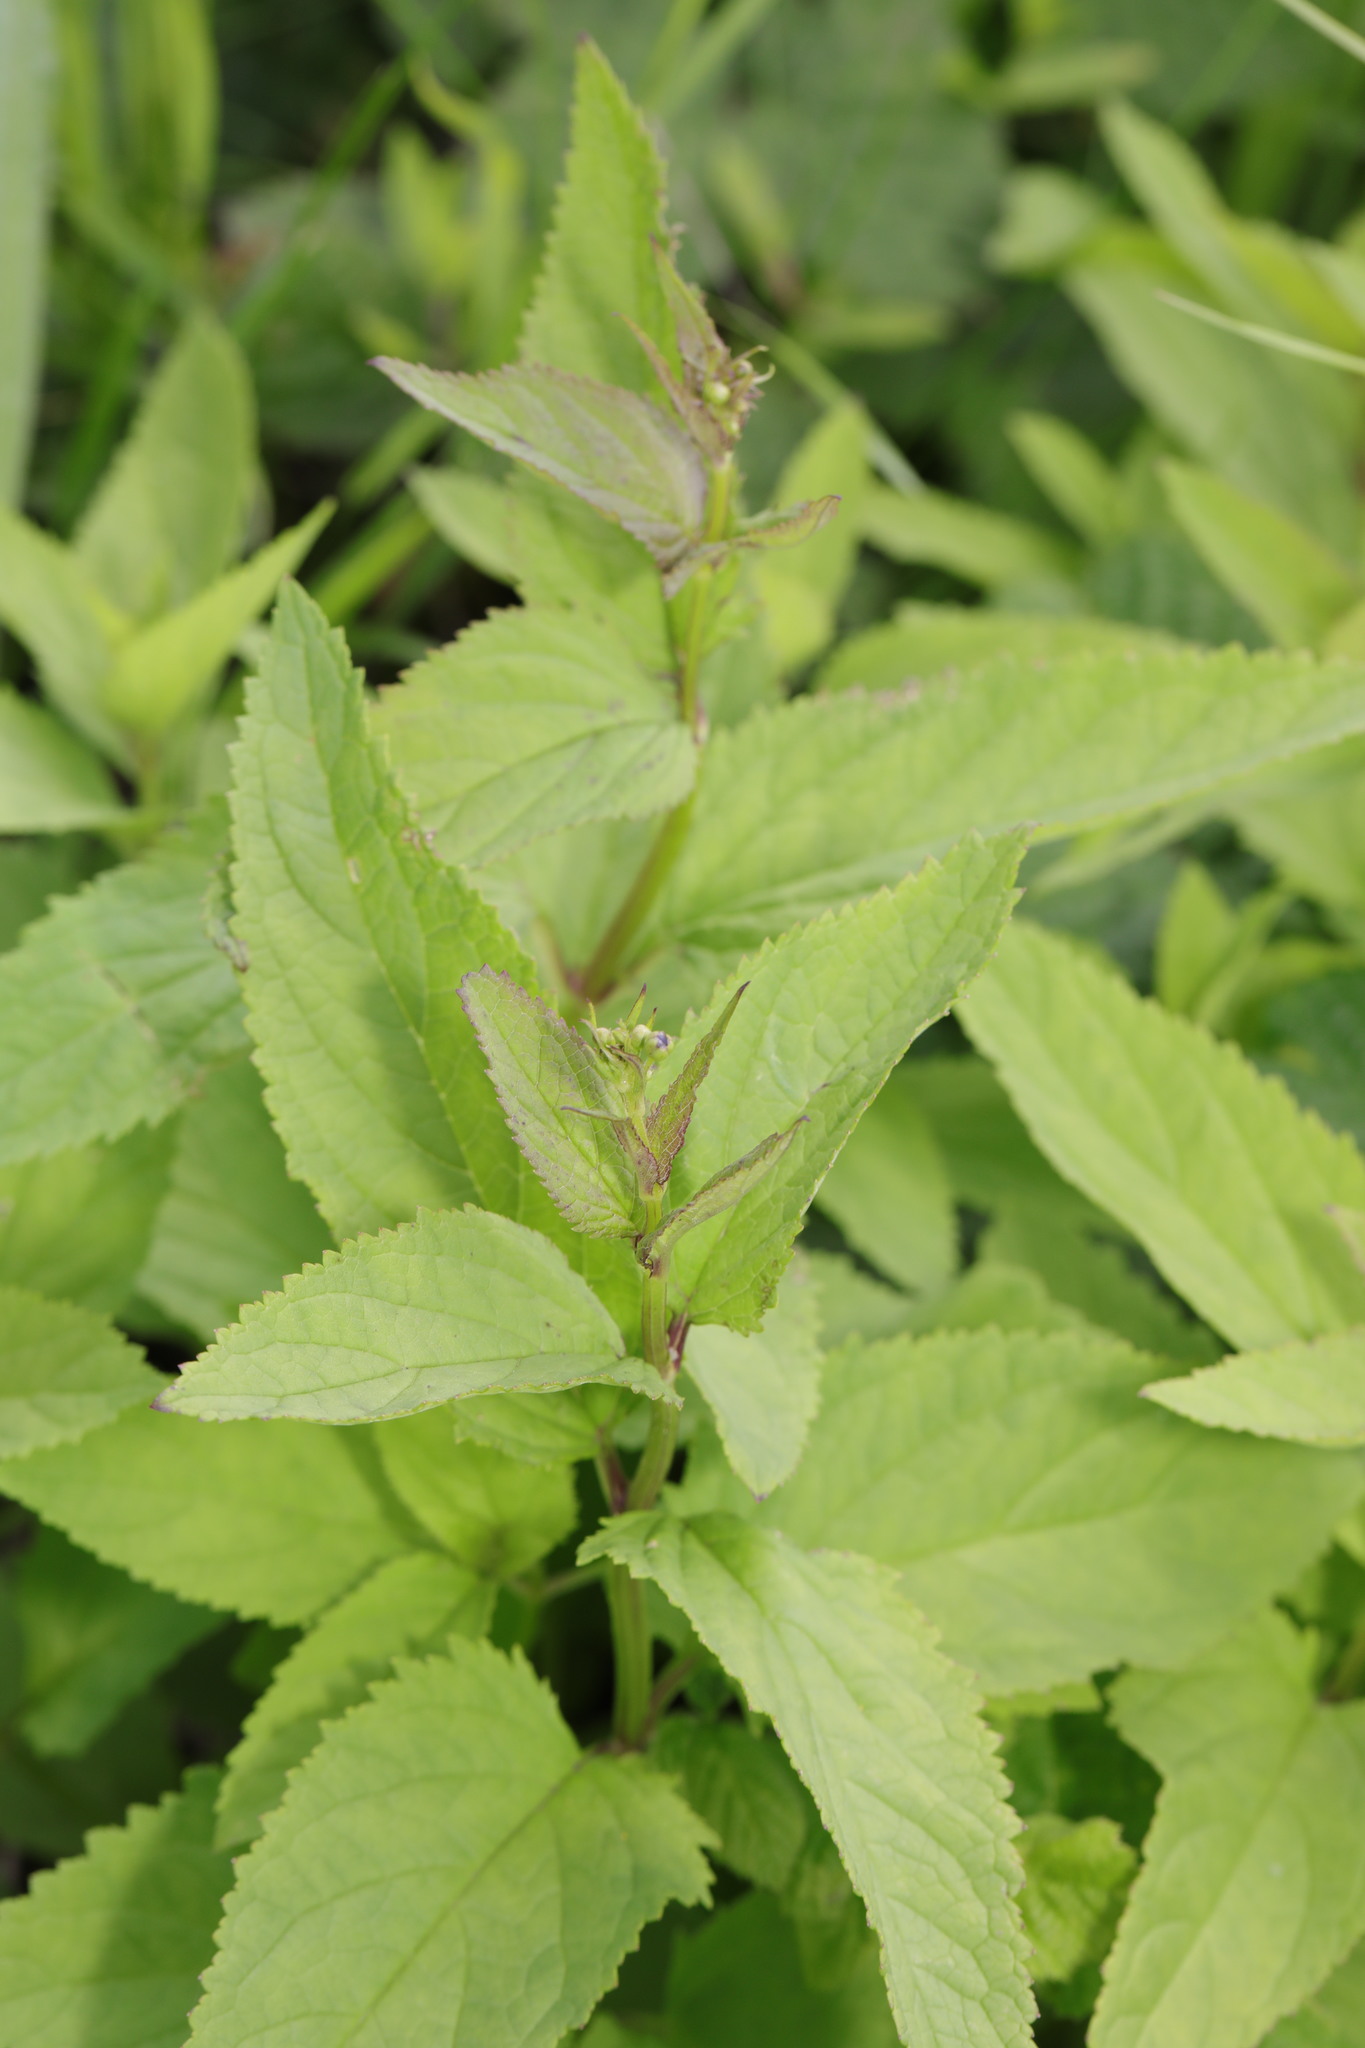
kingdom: Plantae
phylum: Tracheophyta
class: Magnoliopsida
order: Lamiales
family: Scrophulariaceae
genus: Scrophularia
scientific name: Scrophularia nodosa
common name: Common figwort
